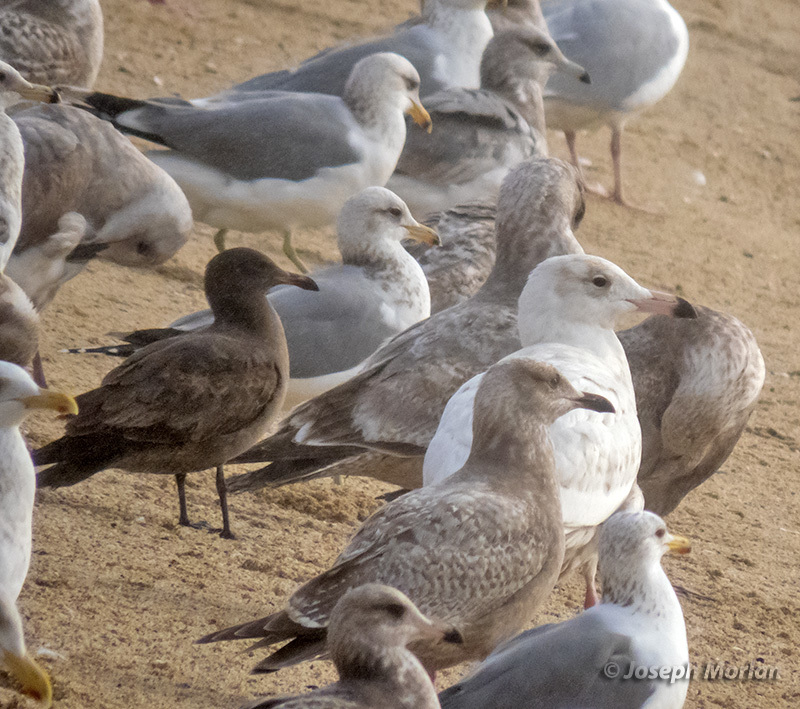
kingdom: Animalia
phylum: Chordata
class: Aves
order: Charadriiformes
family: Laridae
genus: Larus
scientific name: Larus hyperboreus
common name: Glaucous gull
